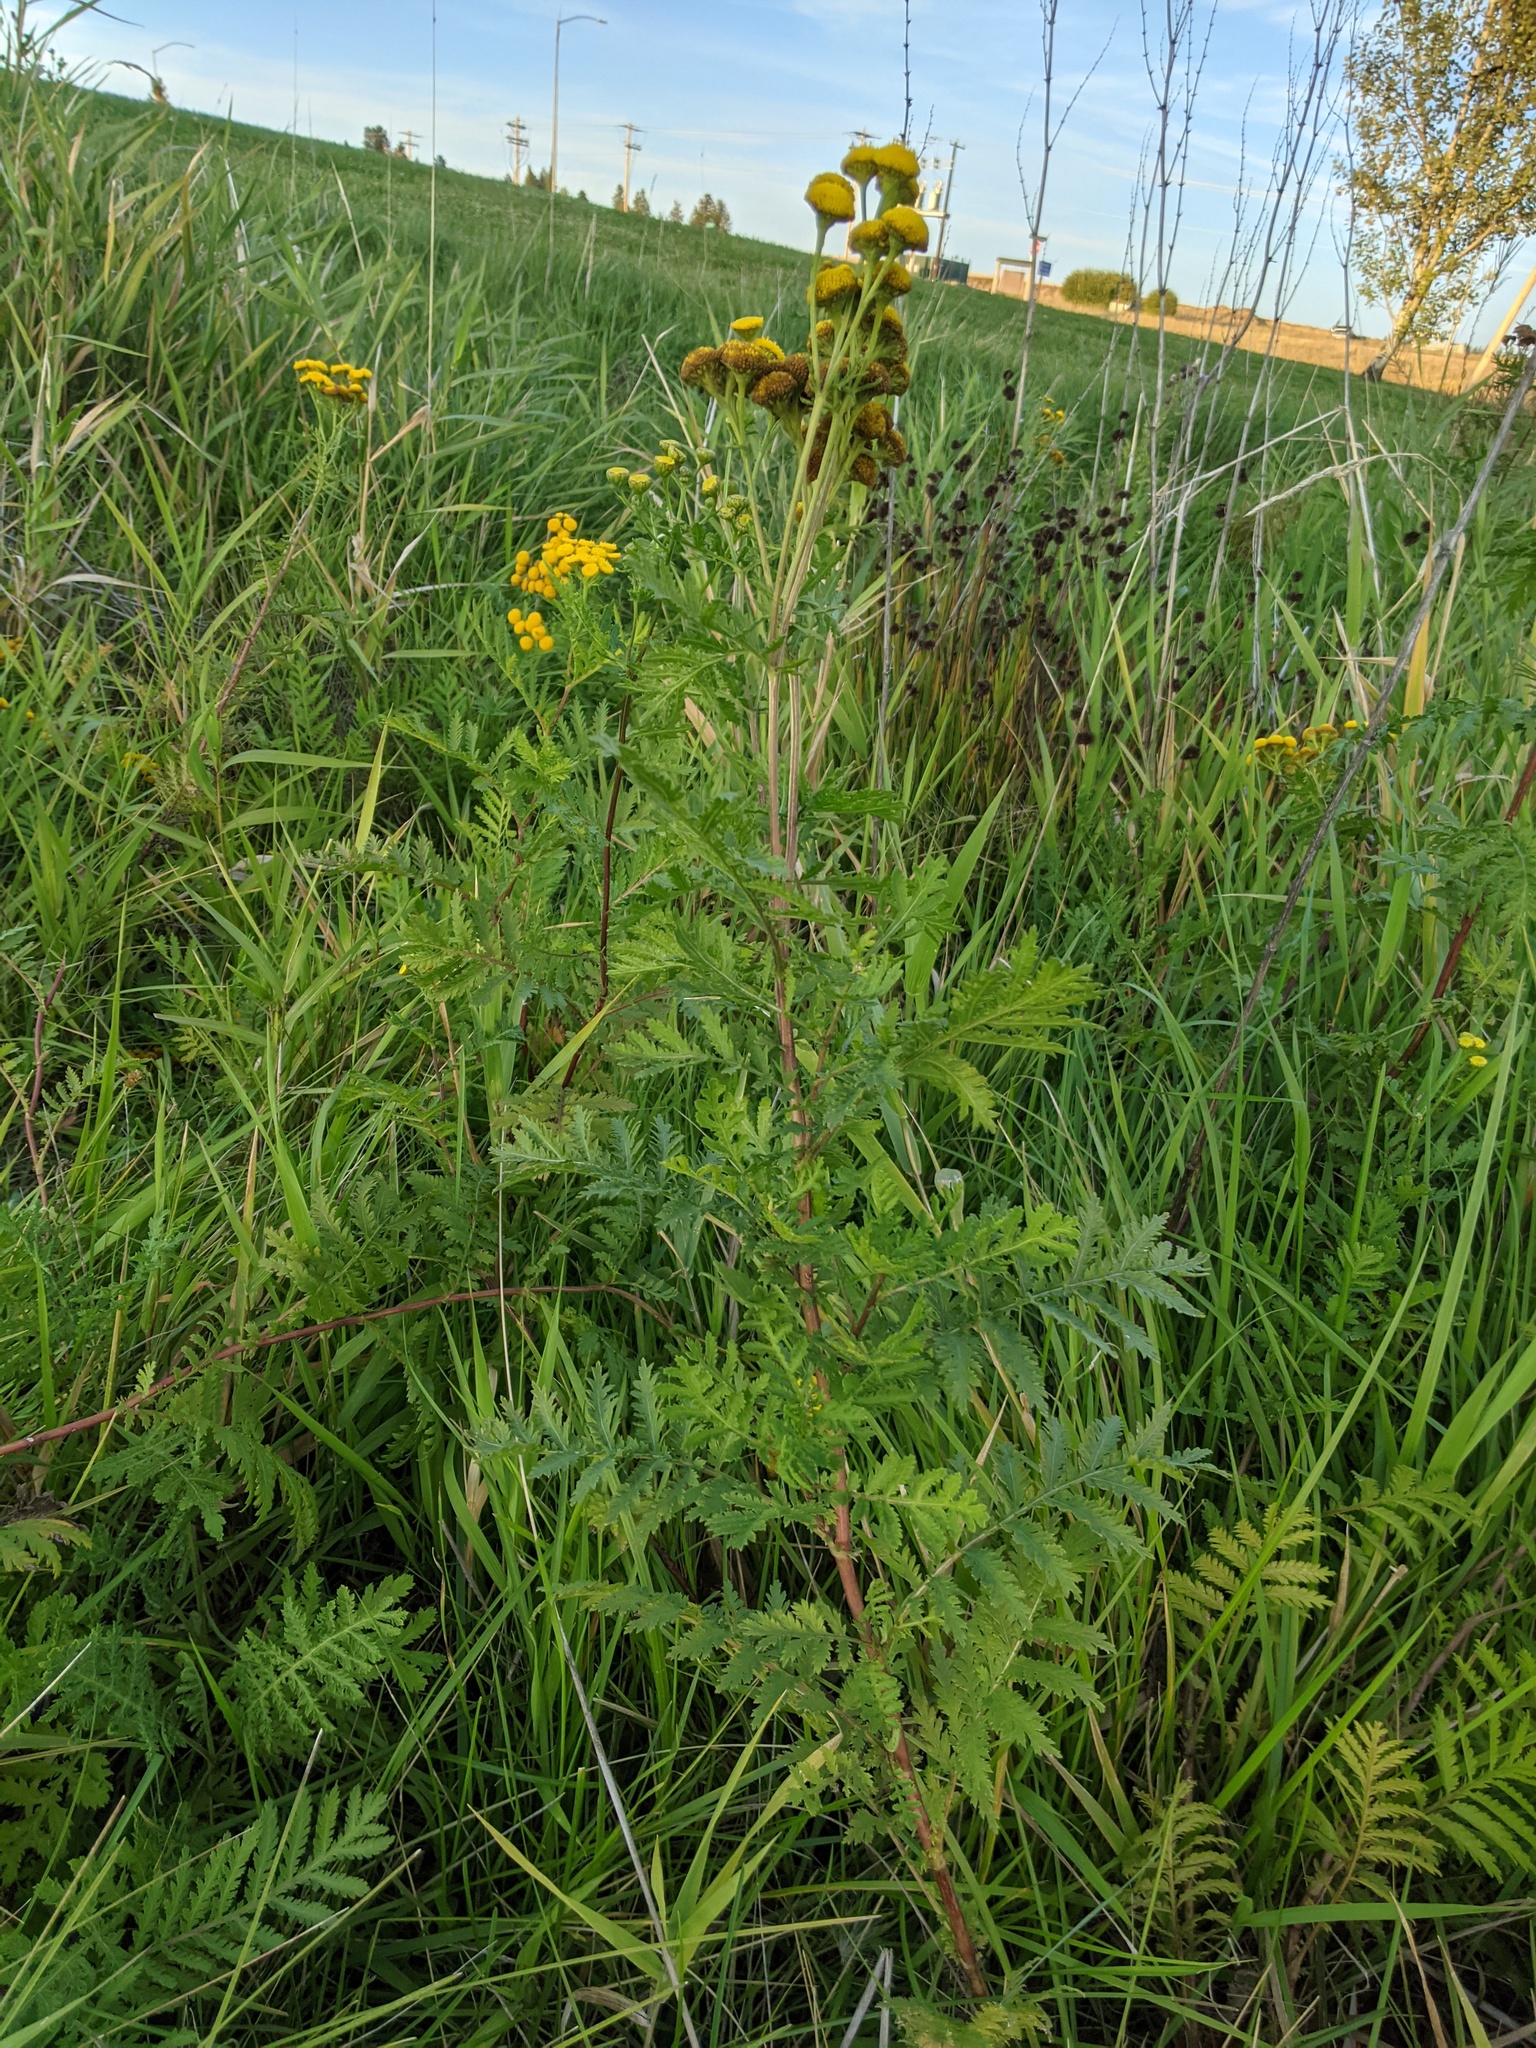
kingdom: Plantae
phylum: Tracheophyta
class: Magnoliopsida
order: Asterales
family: Asteraceae
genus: Tanacetum
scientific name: Tanacetum vulgare
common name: Common tansy
